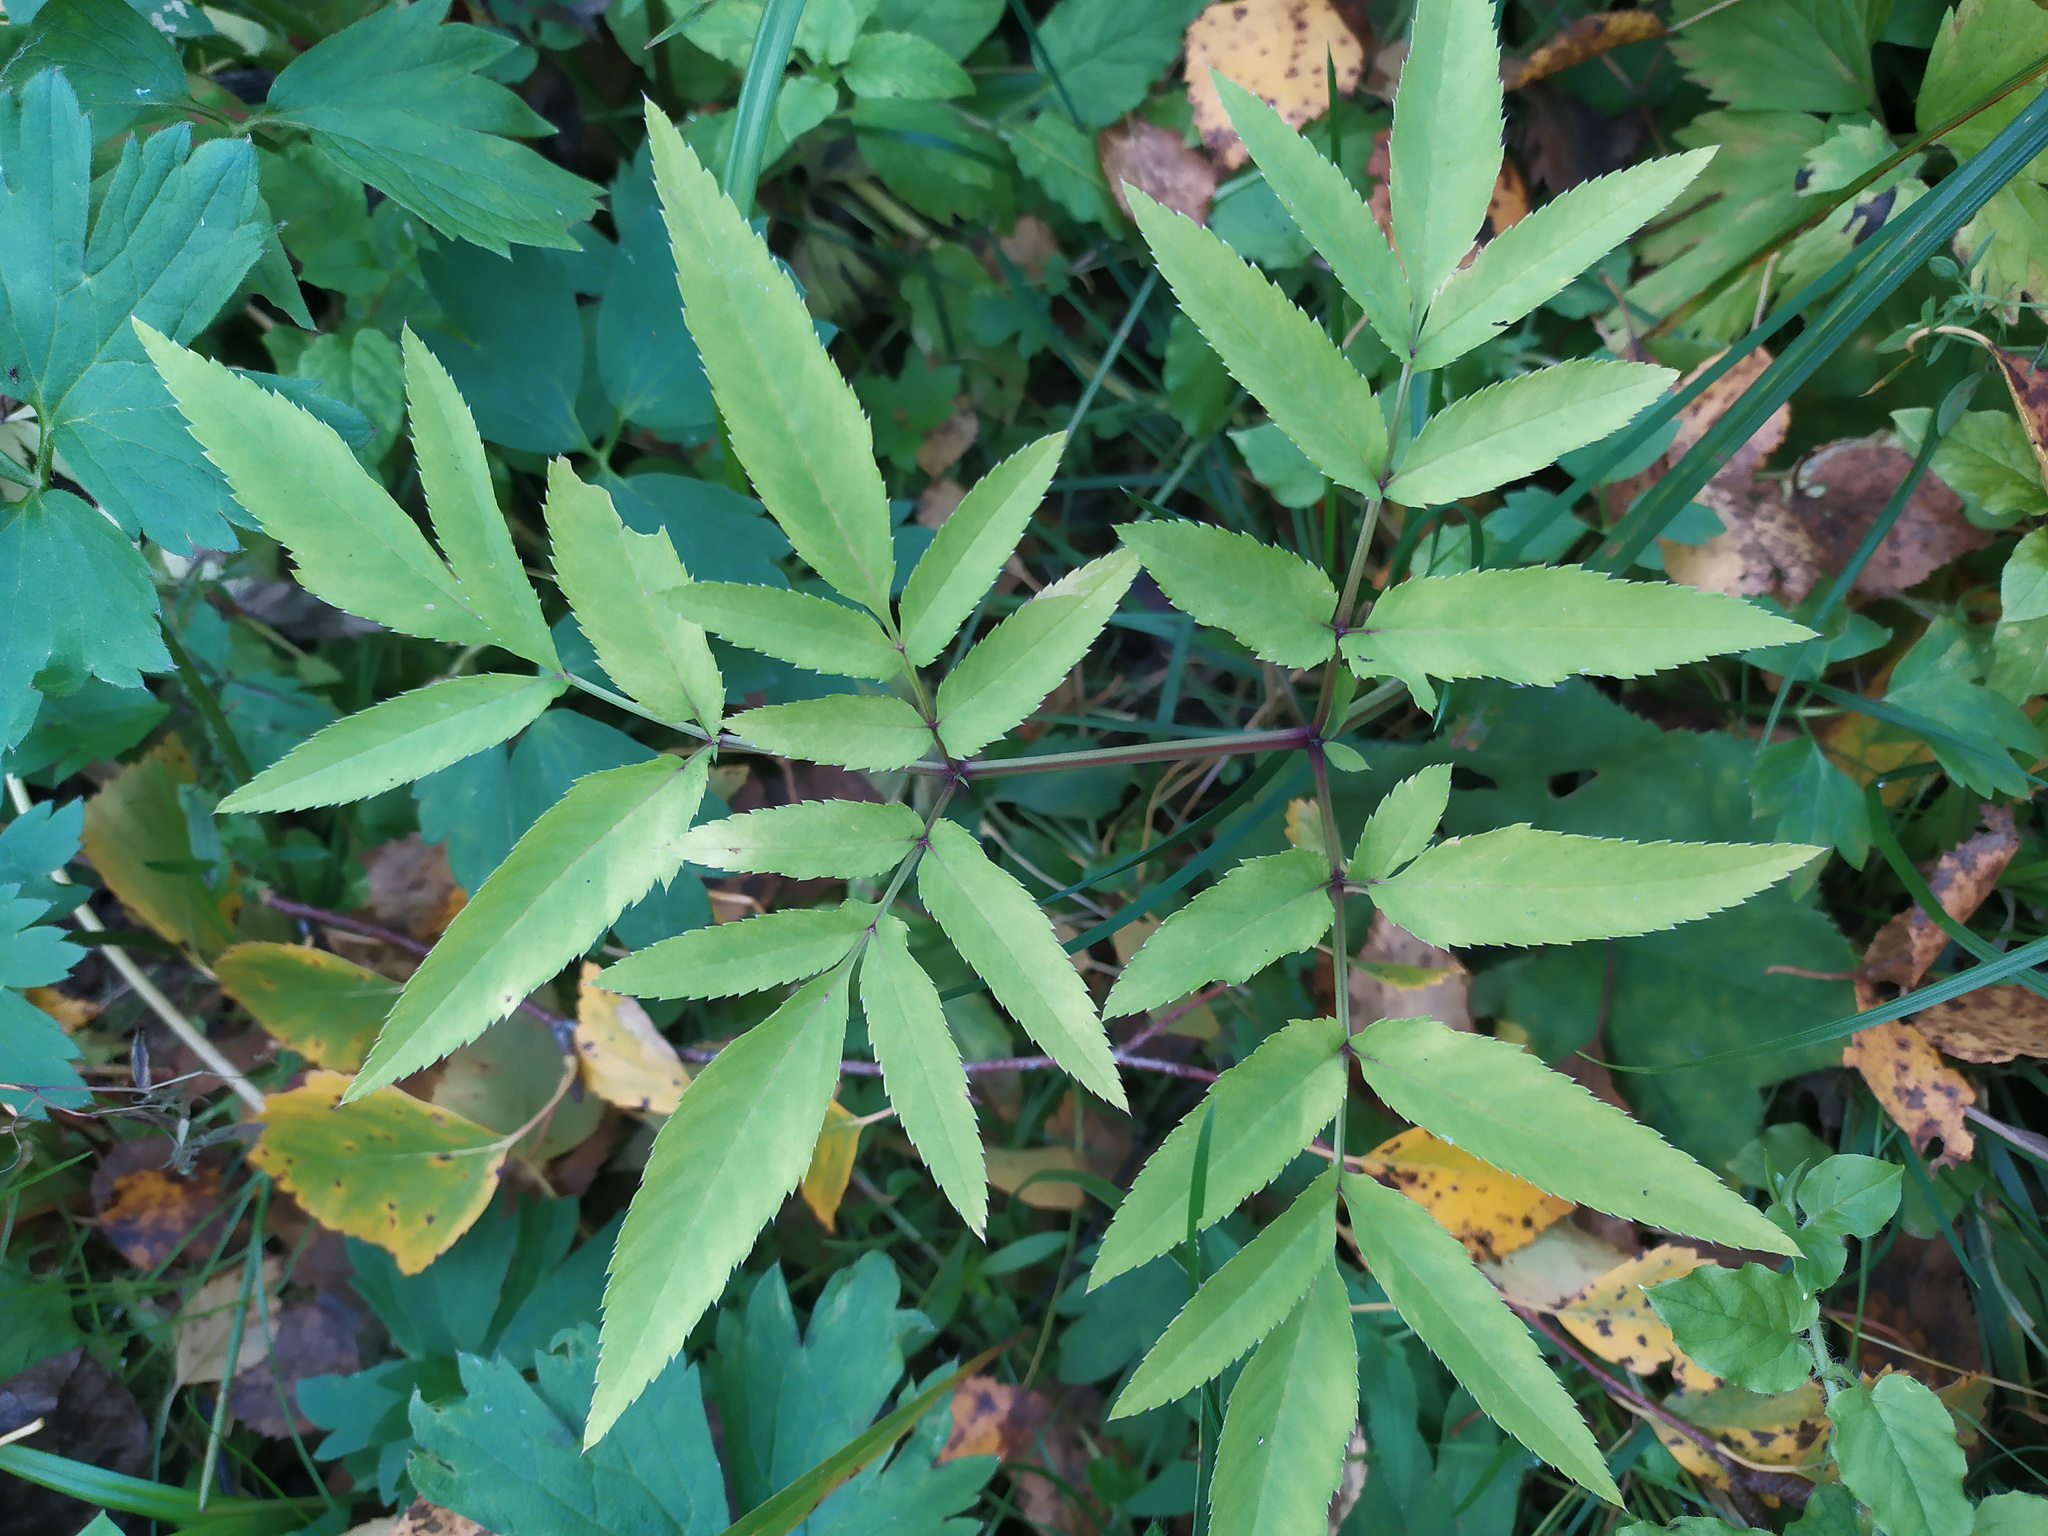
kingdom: Plantae
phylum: Tracheophyta
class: Magnoliopsida
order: Apiales
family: Apiaceae
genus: Angelica
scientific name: Angelica sylvestris
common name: Wild angelica
